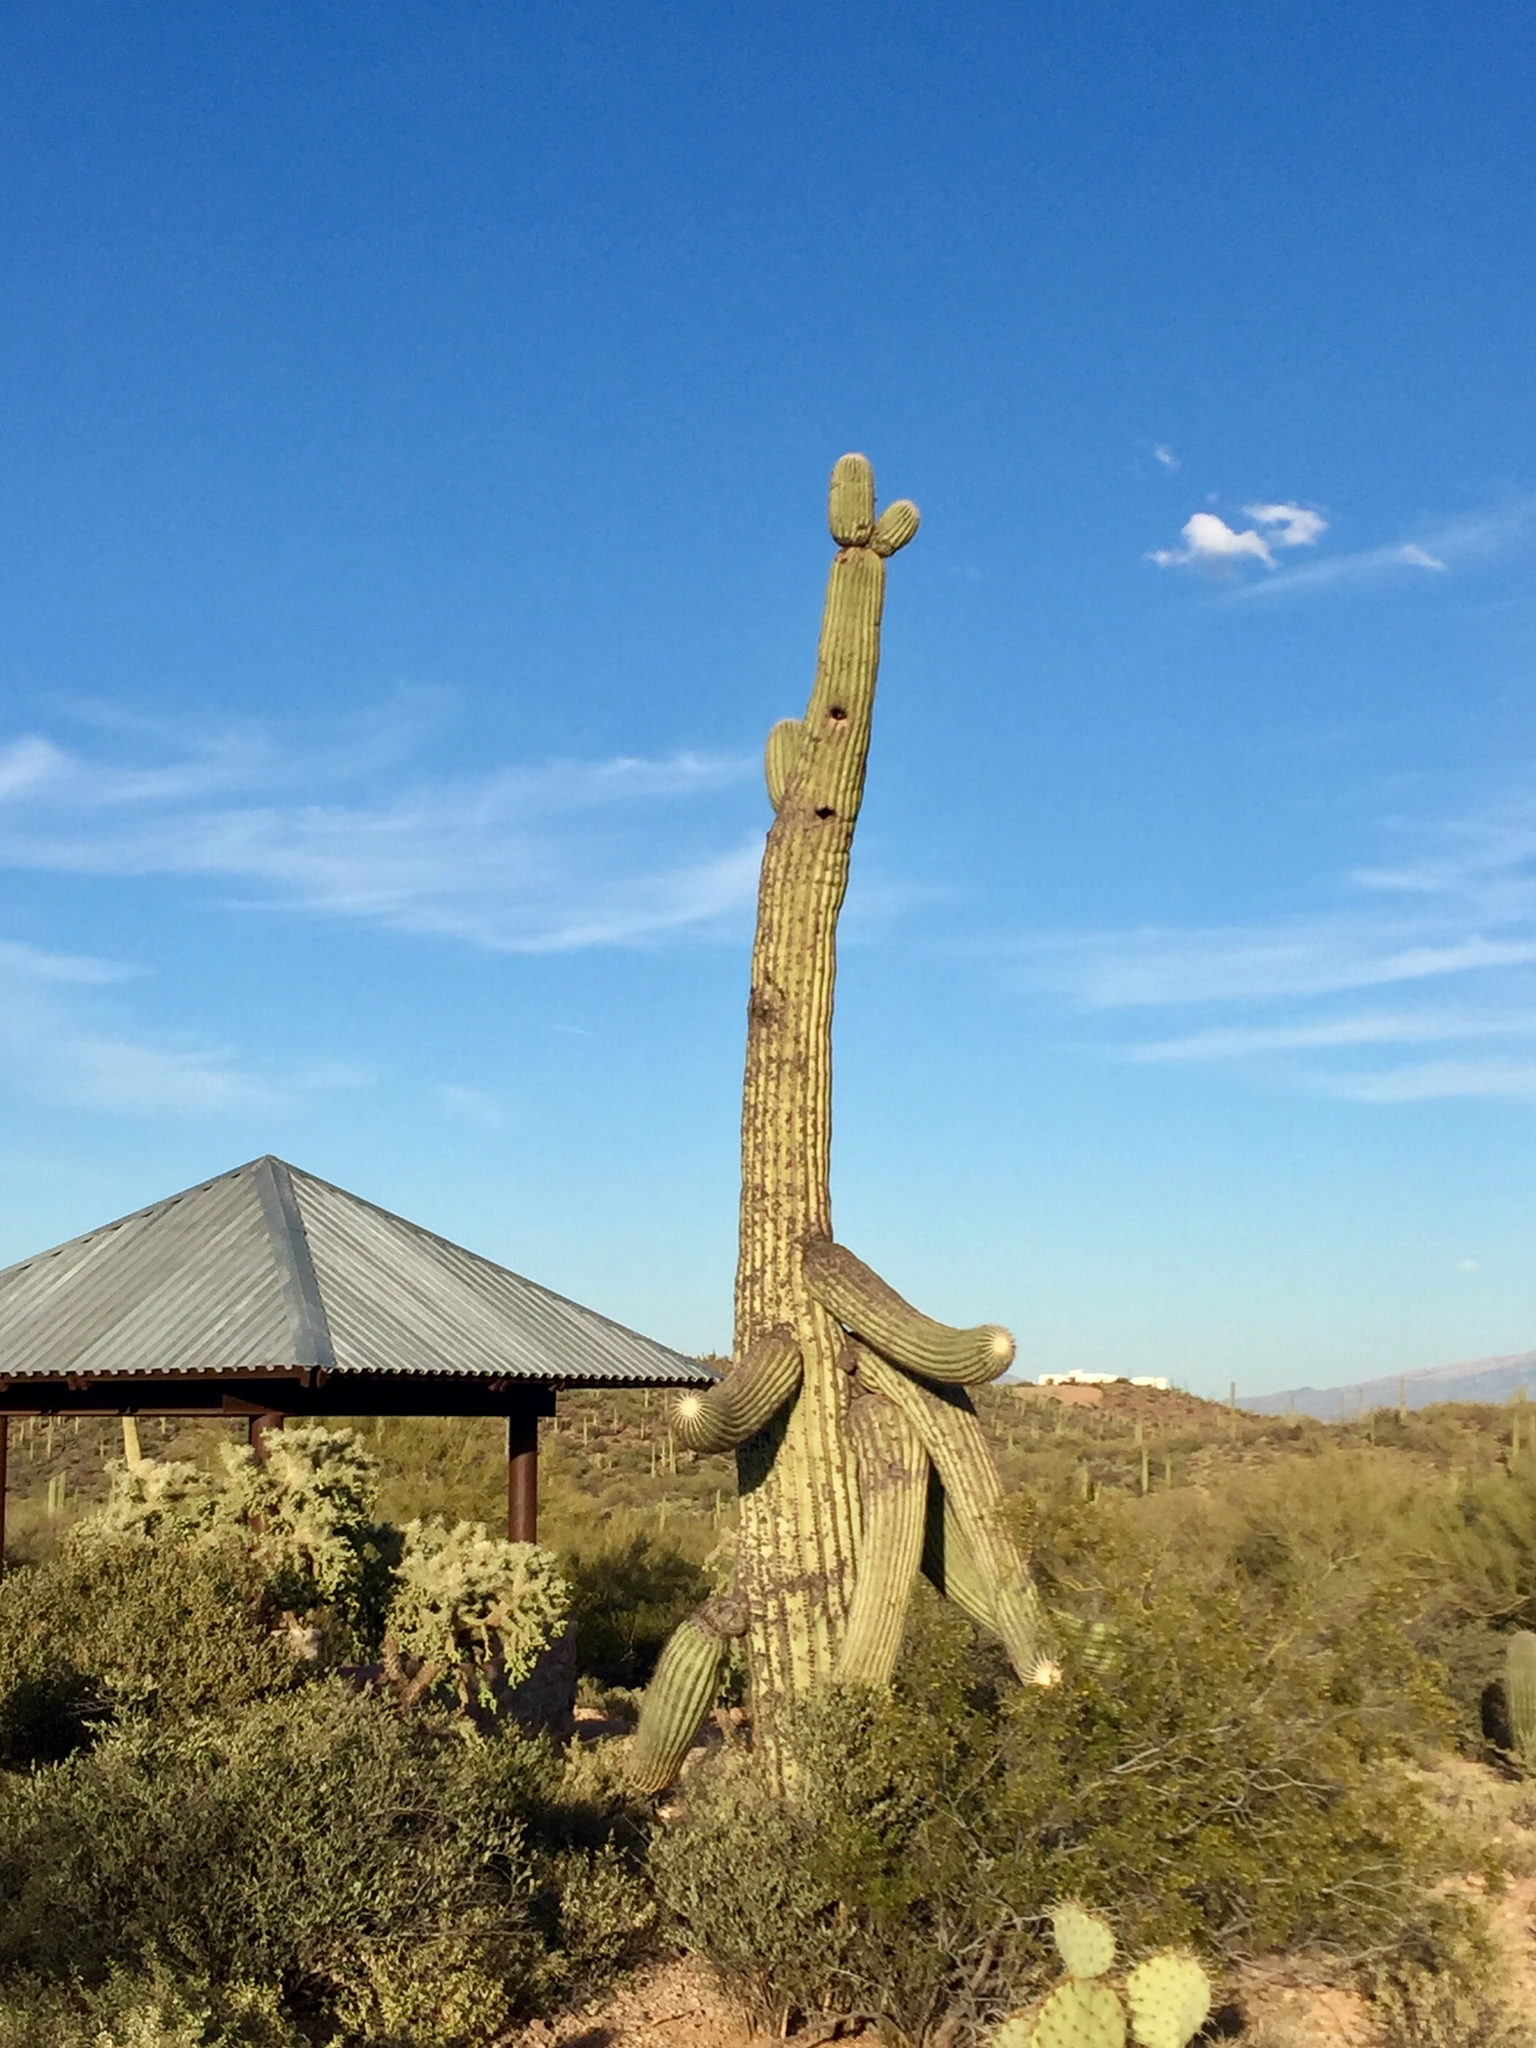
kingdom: Plantae
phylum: Tracheophyta
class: Magnoliopsida
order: Caryophyllales
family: Cactaceae
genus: Carnegiea
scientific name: Carnegiea gigantea
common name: Saguaro
